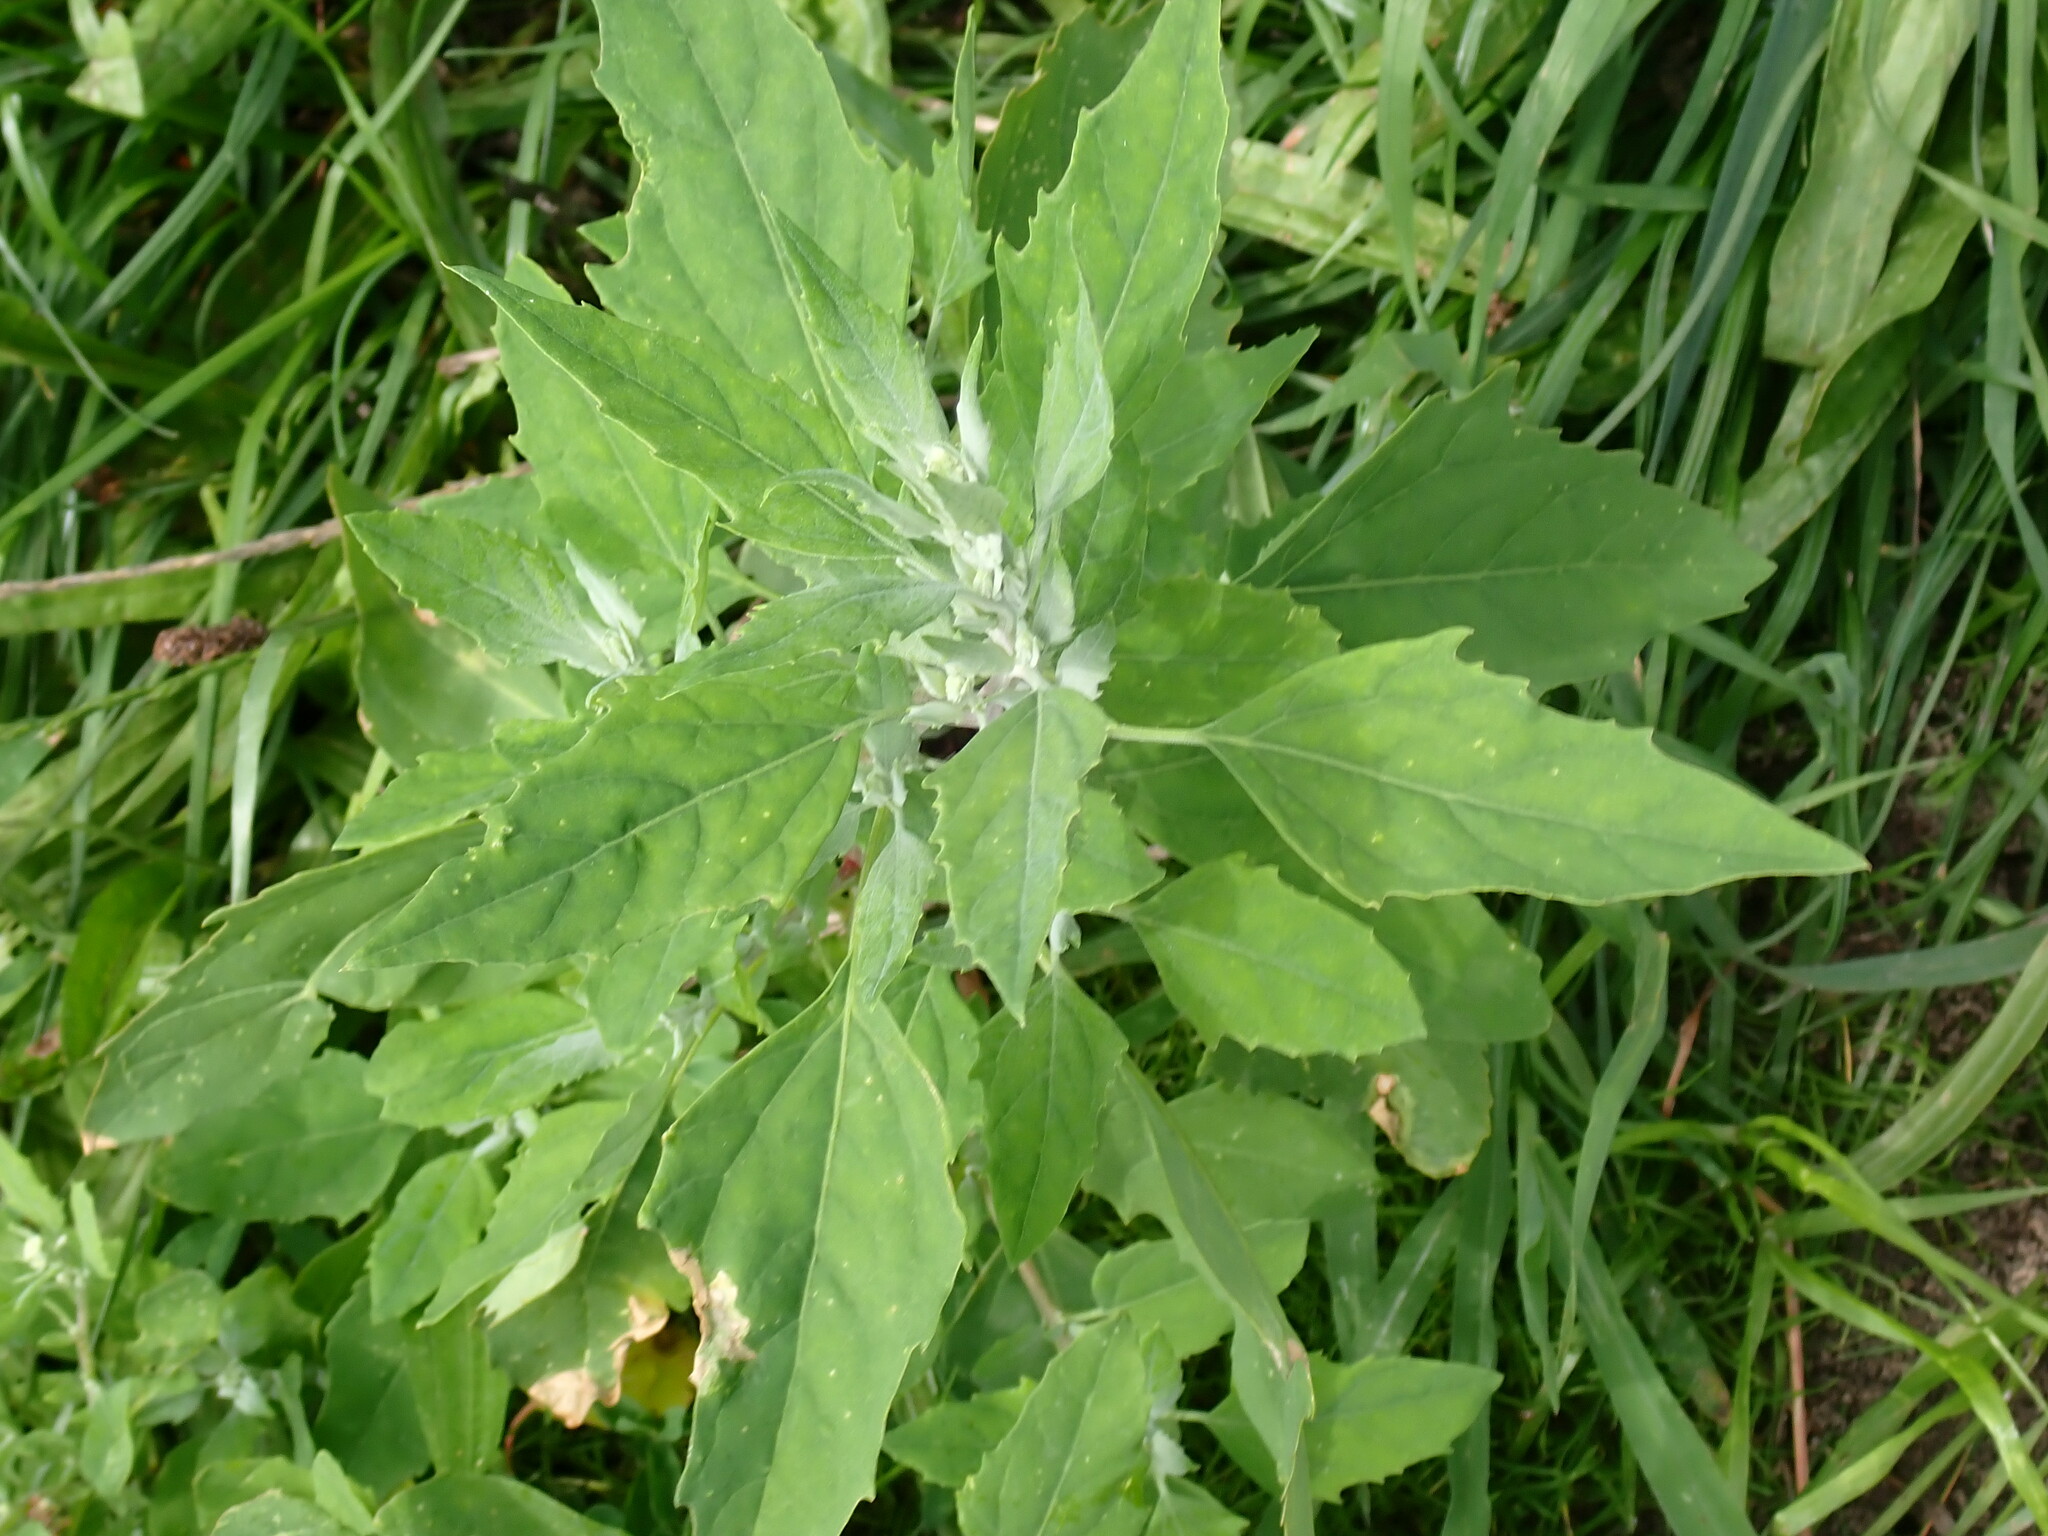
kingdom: Plantae
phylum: Tracheophyta
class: Magnoliopsida
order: Caryophyllales
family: Amaranthaceae
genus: Chenopodium
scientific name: Chenopodium album
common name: Fat-hen
